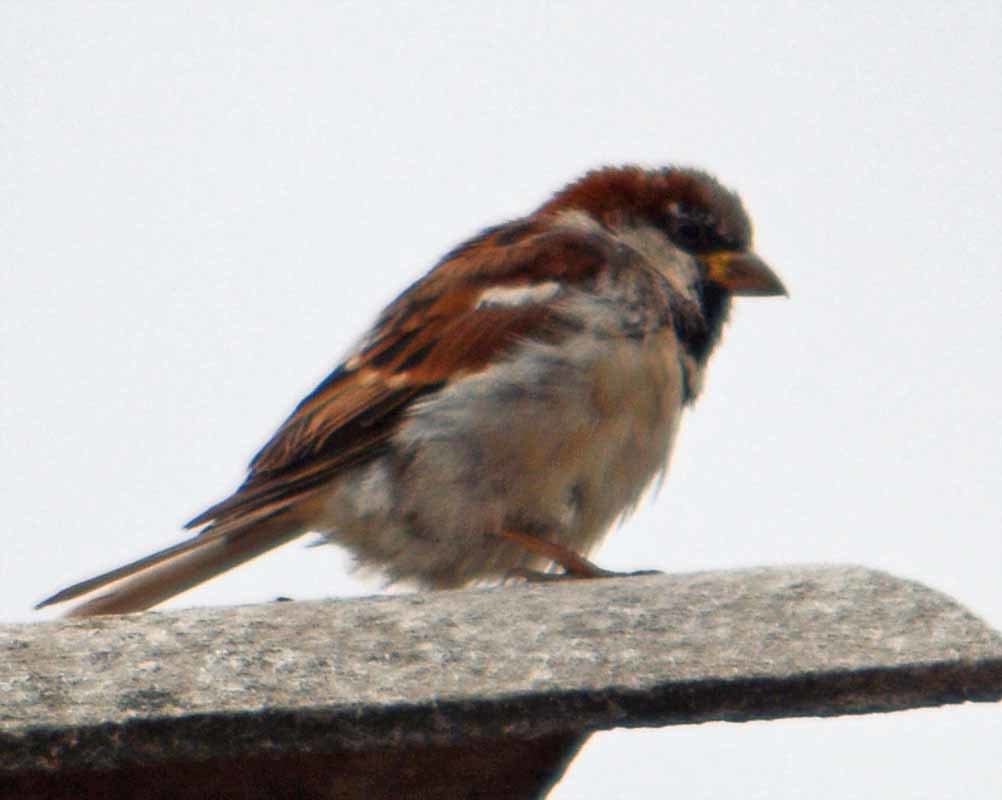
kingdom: Animalia
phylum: Chordata
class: Aves
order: Passeriformes
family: Passeridae
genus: Passer
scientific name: Passer domesticus
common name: House sparrow
